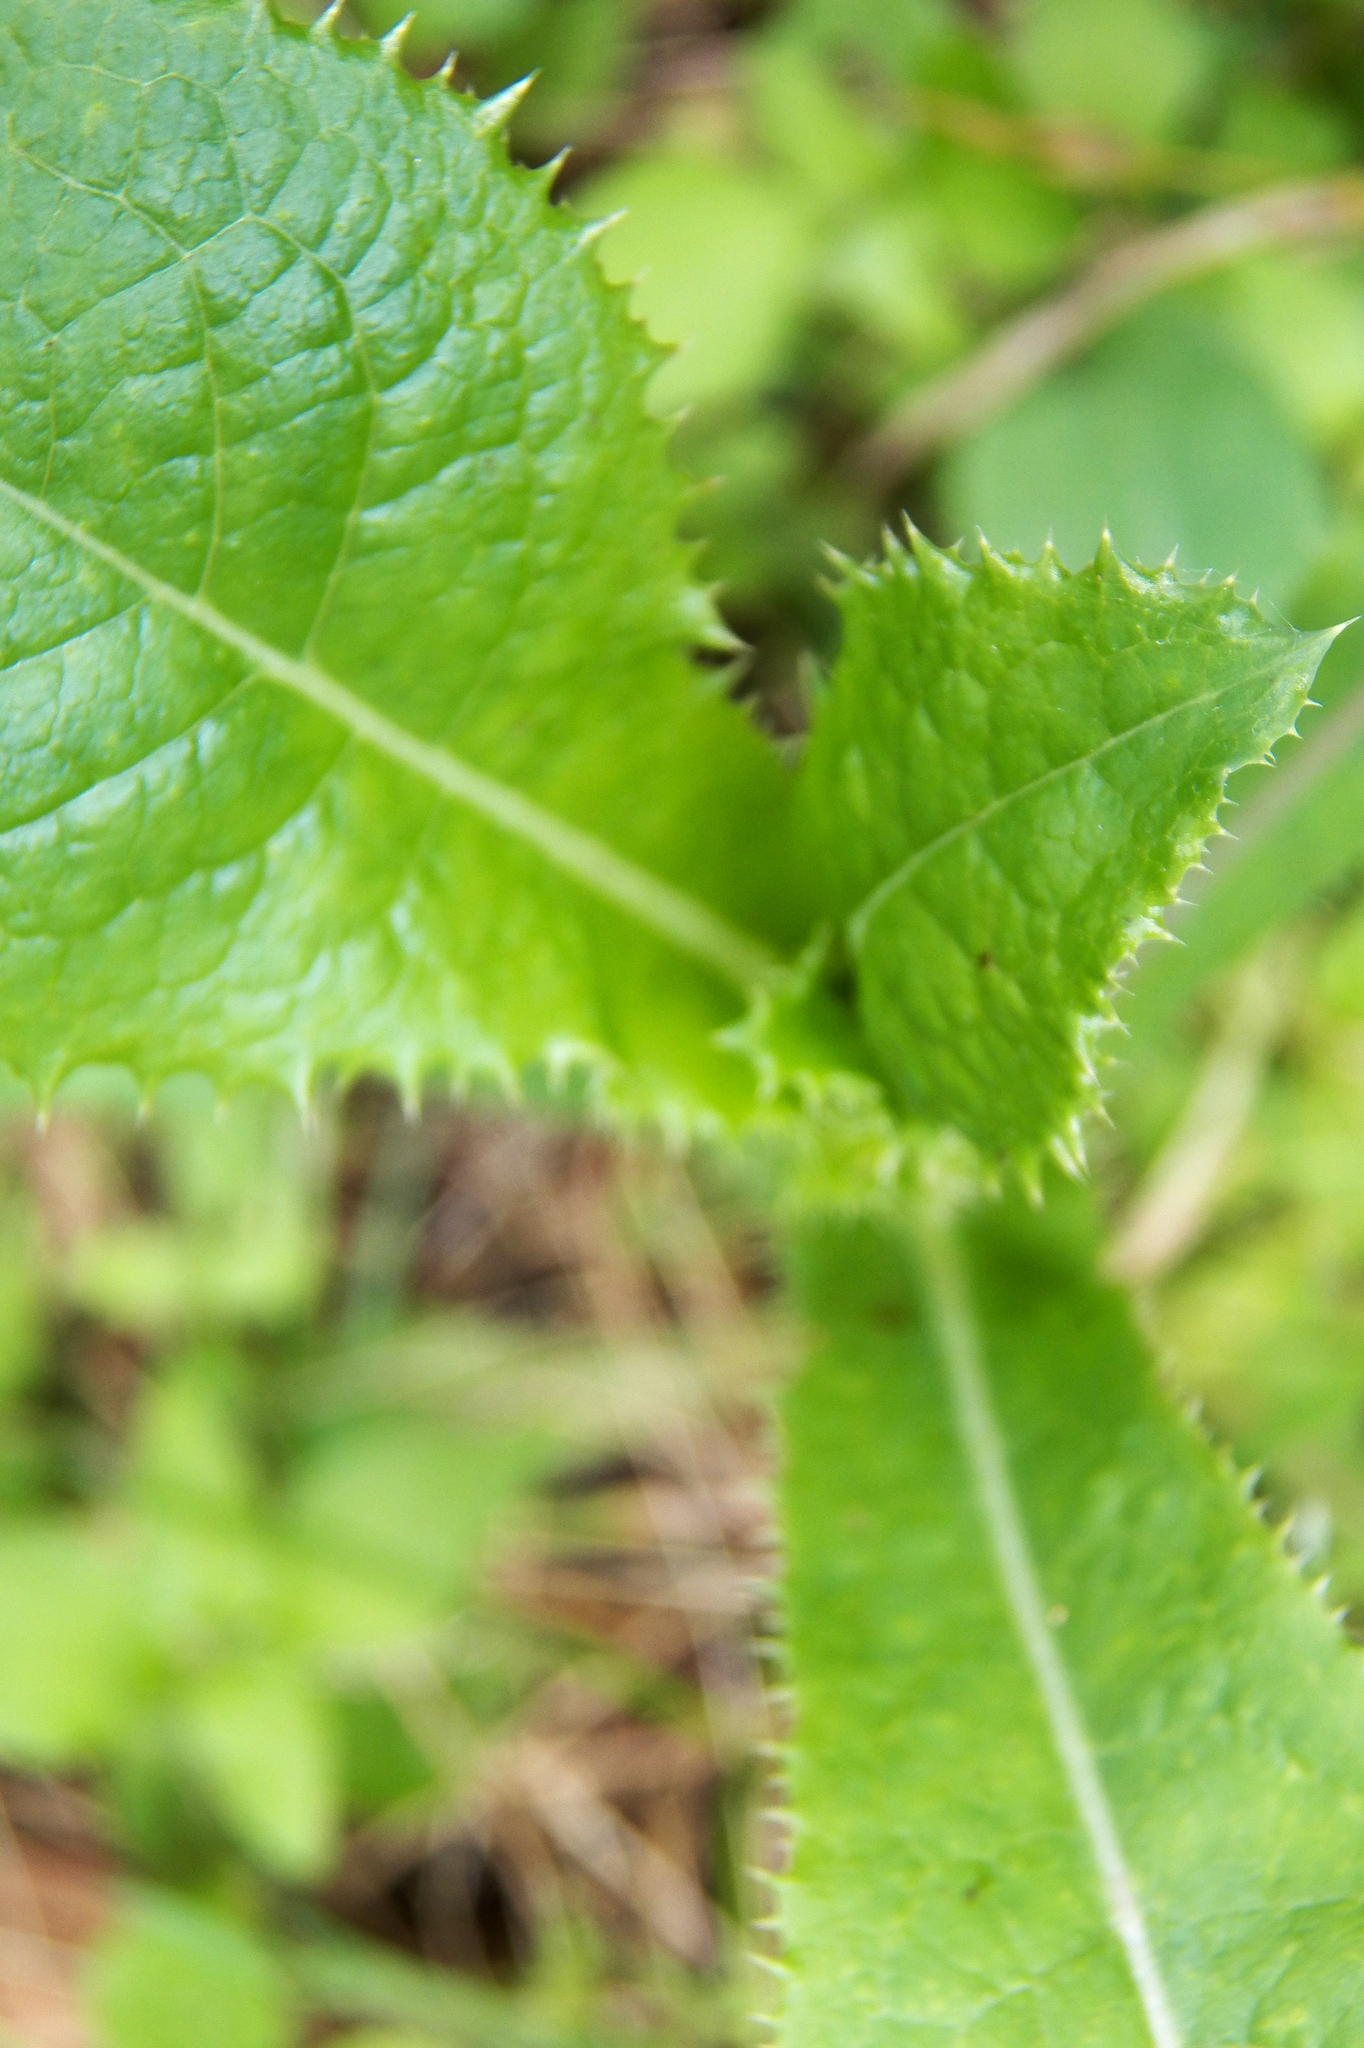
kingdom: Plantae
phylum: Tracheophyta
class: Magnoliopsida
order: Asterales
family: Asteraceae
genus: Sonchus
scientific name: Sonchus asper
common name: Prickly sow-thistle
